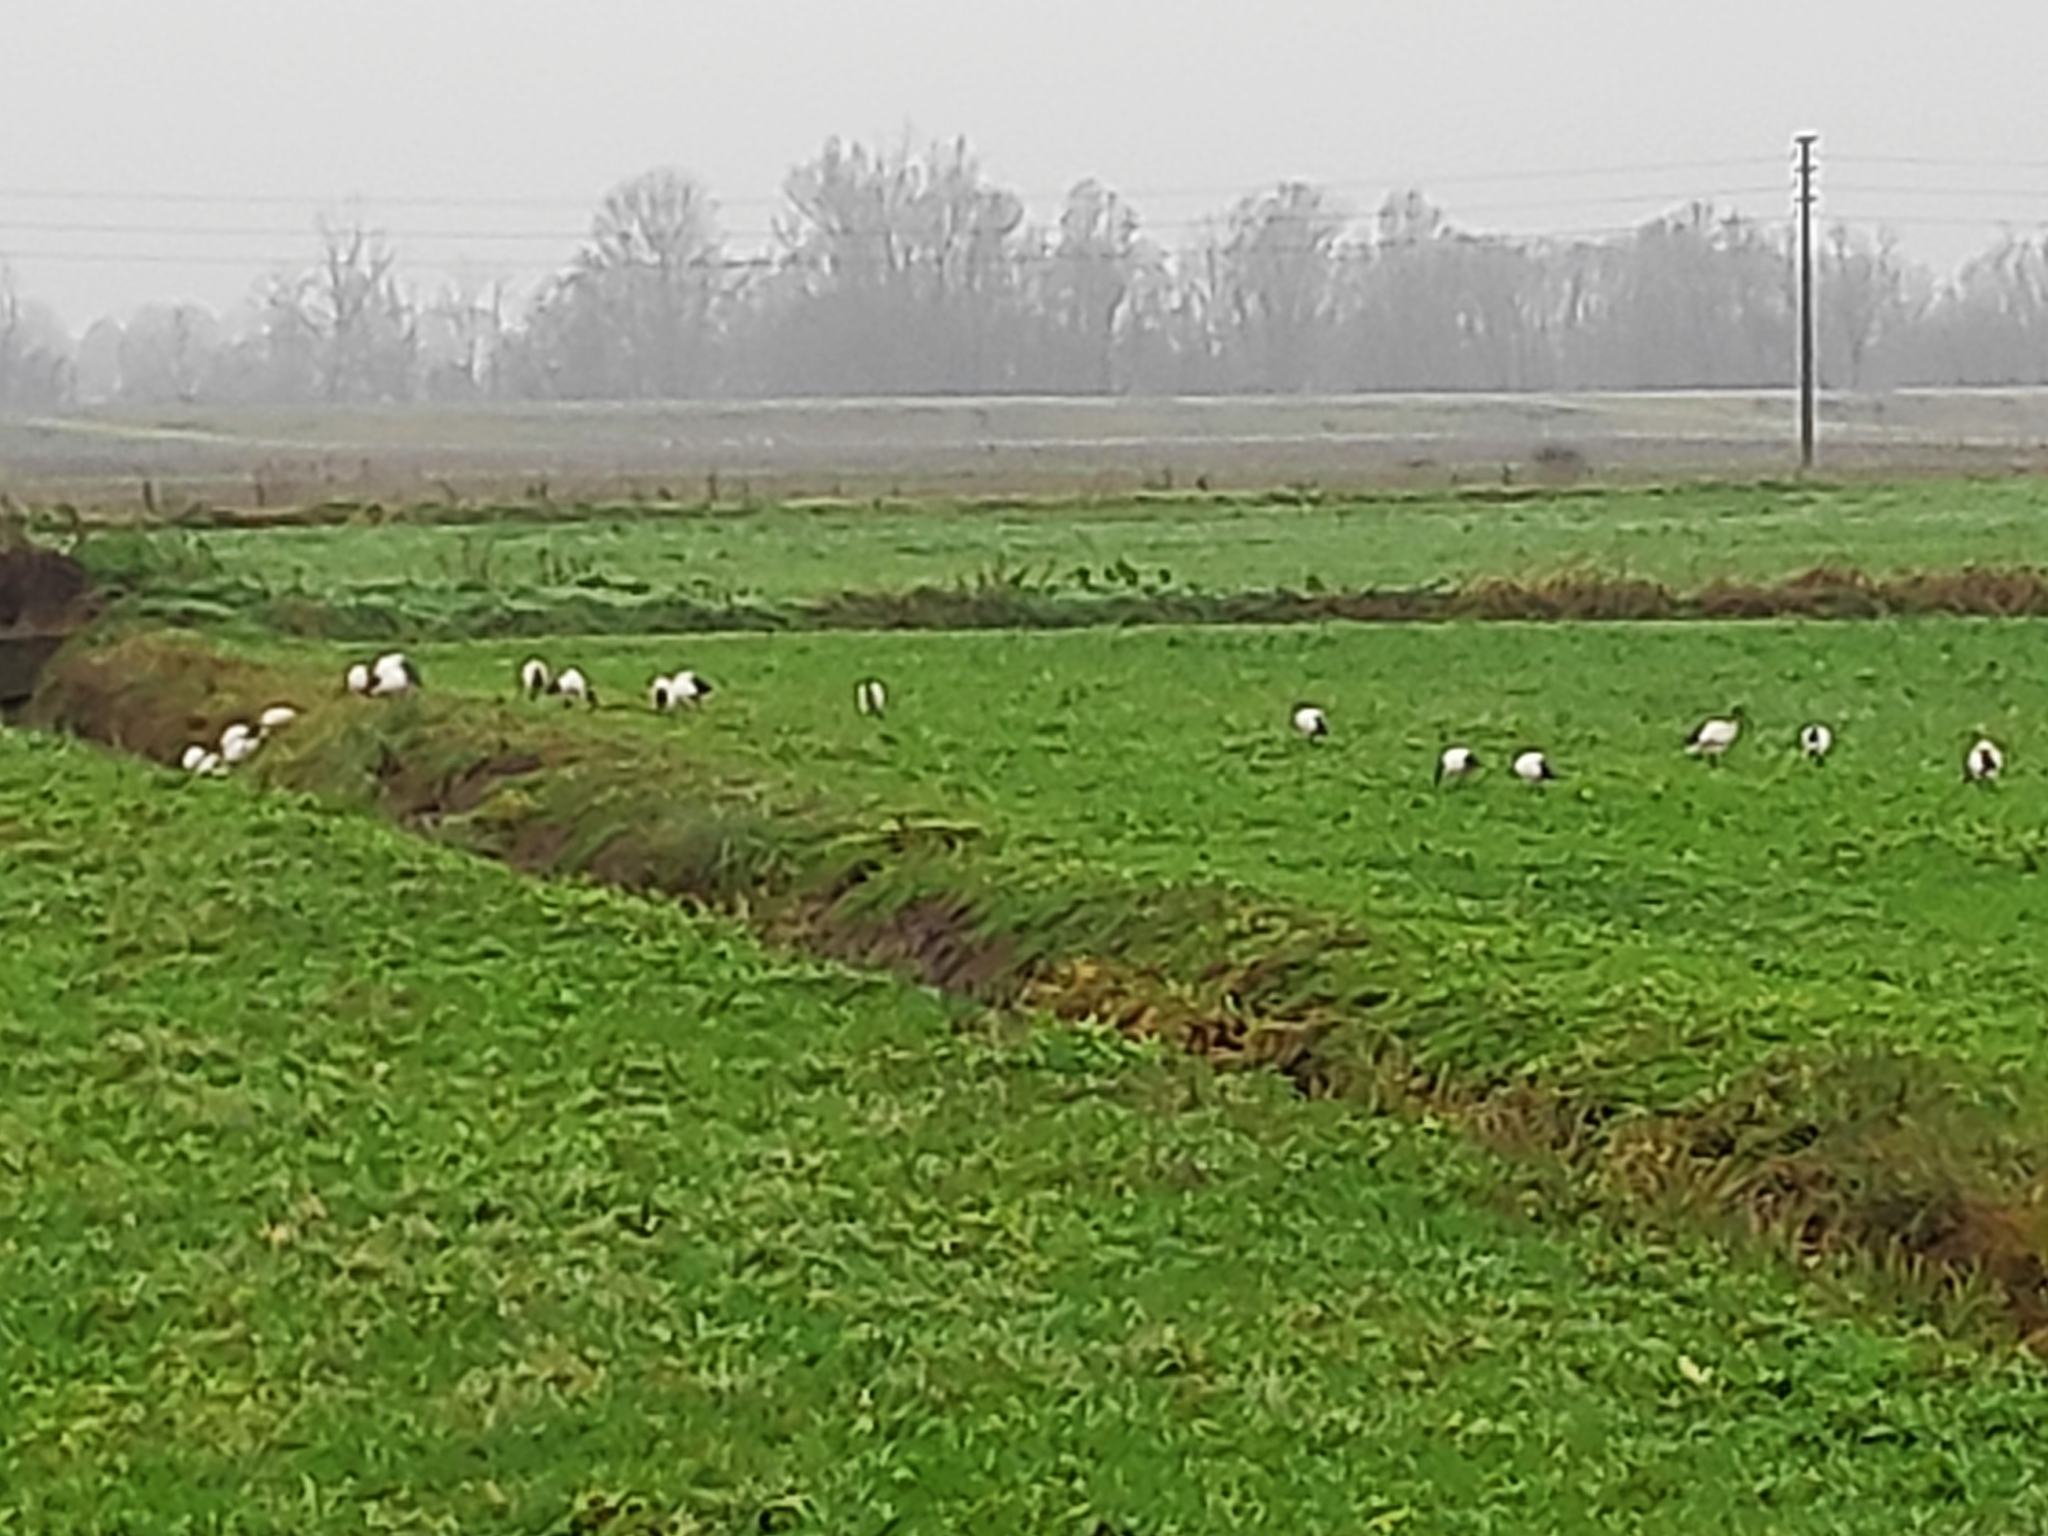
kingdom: Animalia
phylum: Chordata
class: Aves
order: Pelecaniformes
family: Threskiornithidae
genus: Threskiornis
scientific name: Threskiornis aethiopicus
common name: Sacred ibis
